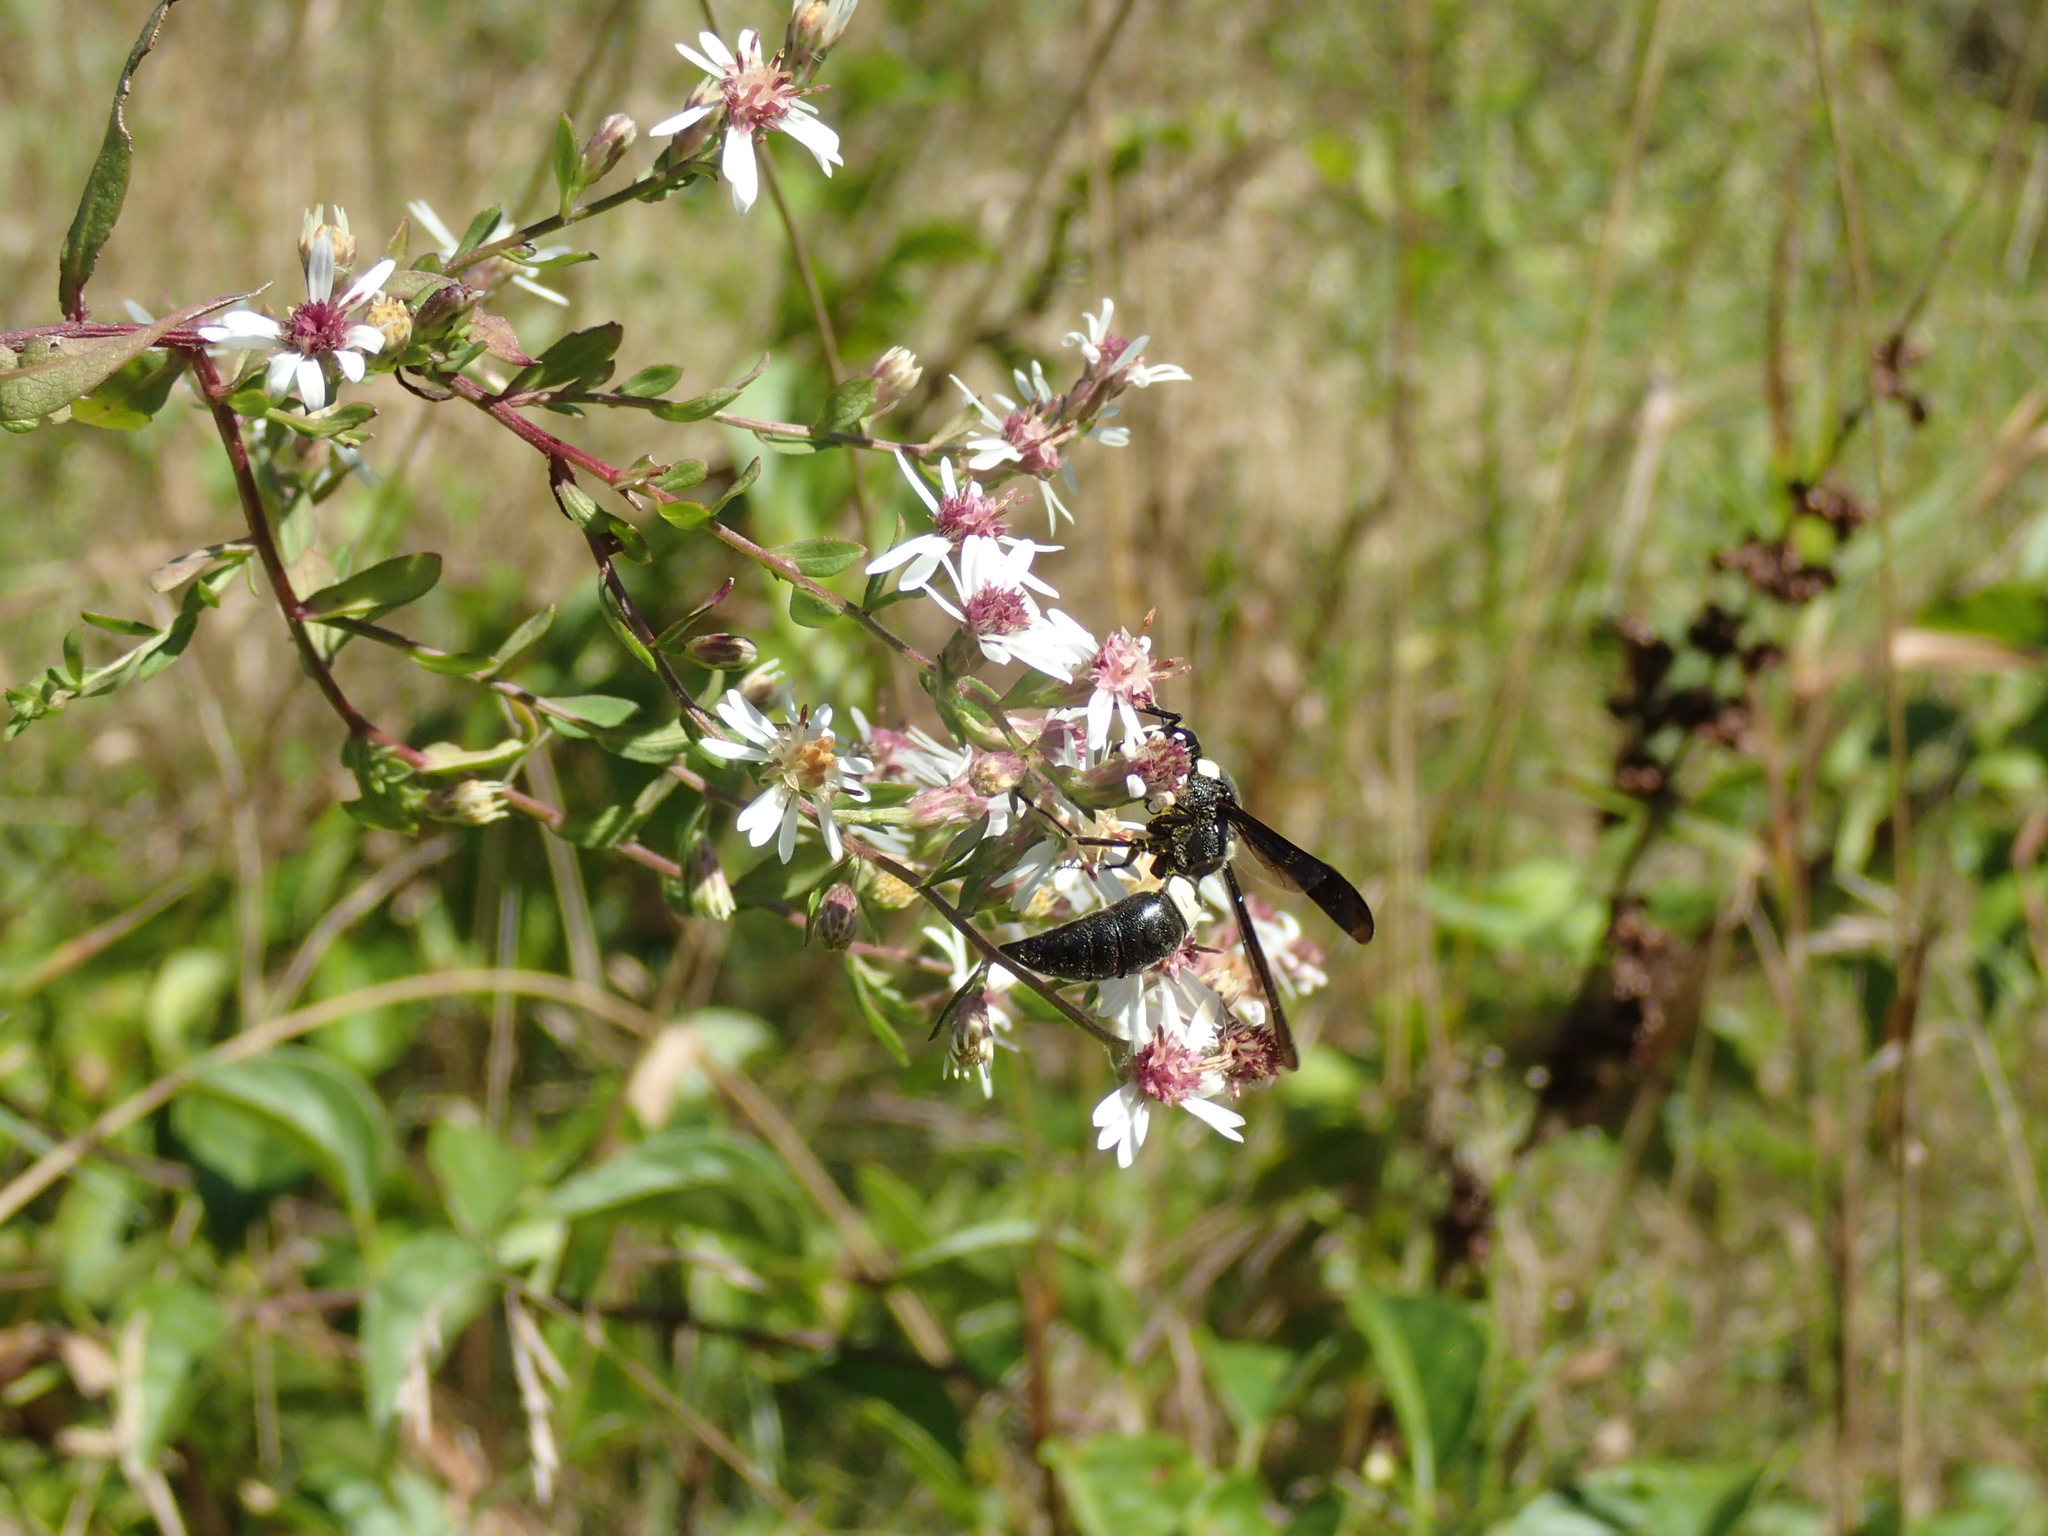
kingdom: Animalia
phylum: Arthropoda
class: Insecta
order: Hymenoptera
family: Eumenidae
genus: Monobia
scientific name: Monobia quadridens
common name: Four-toothed mason wasp
